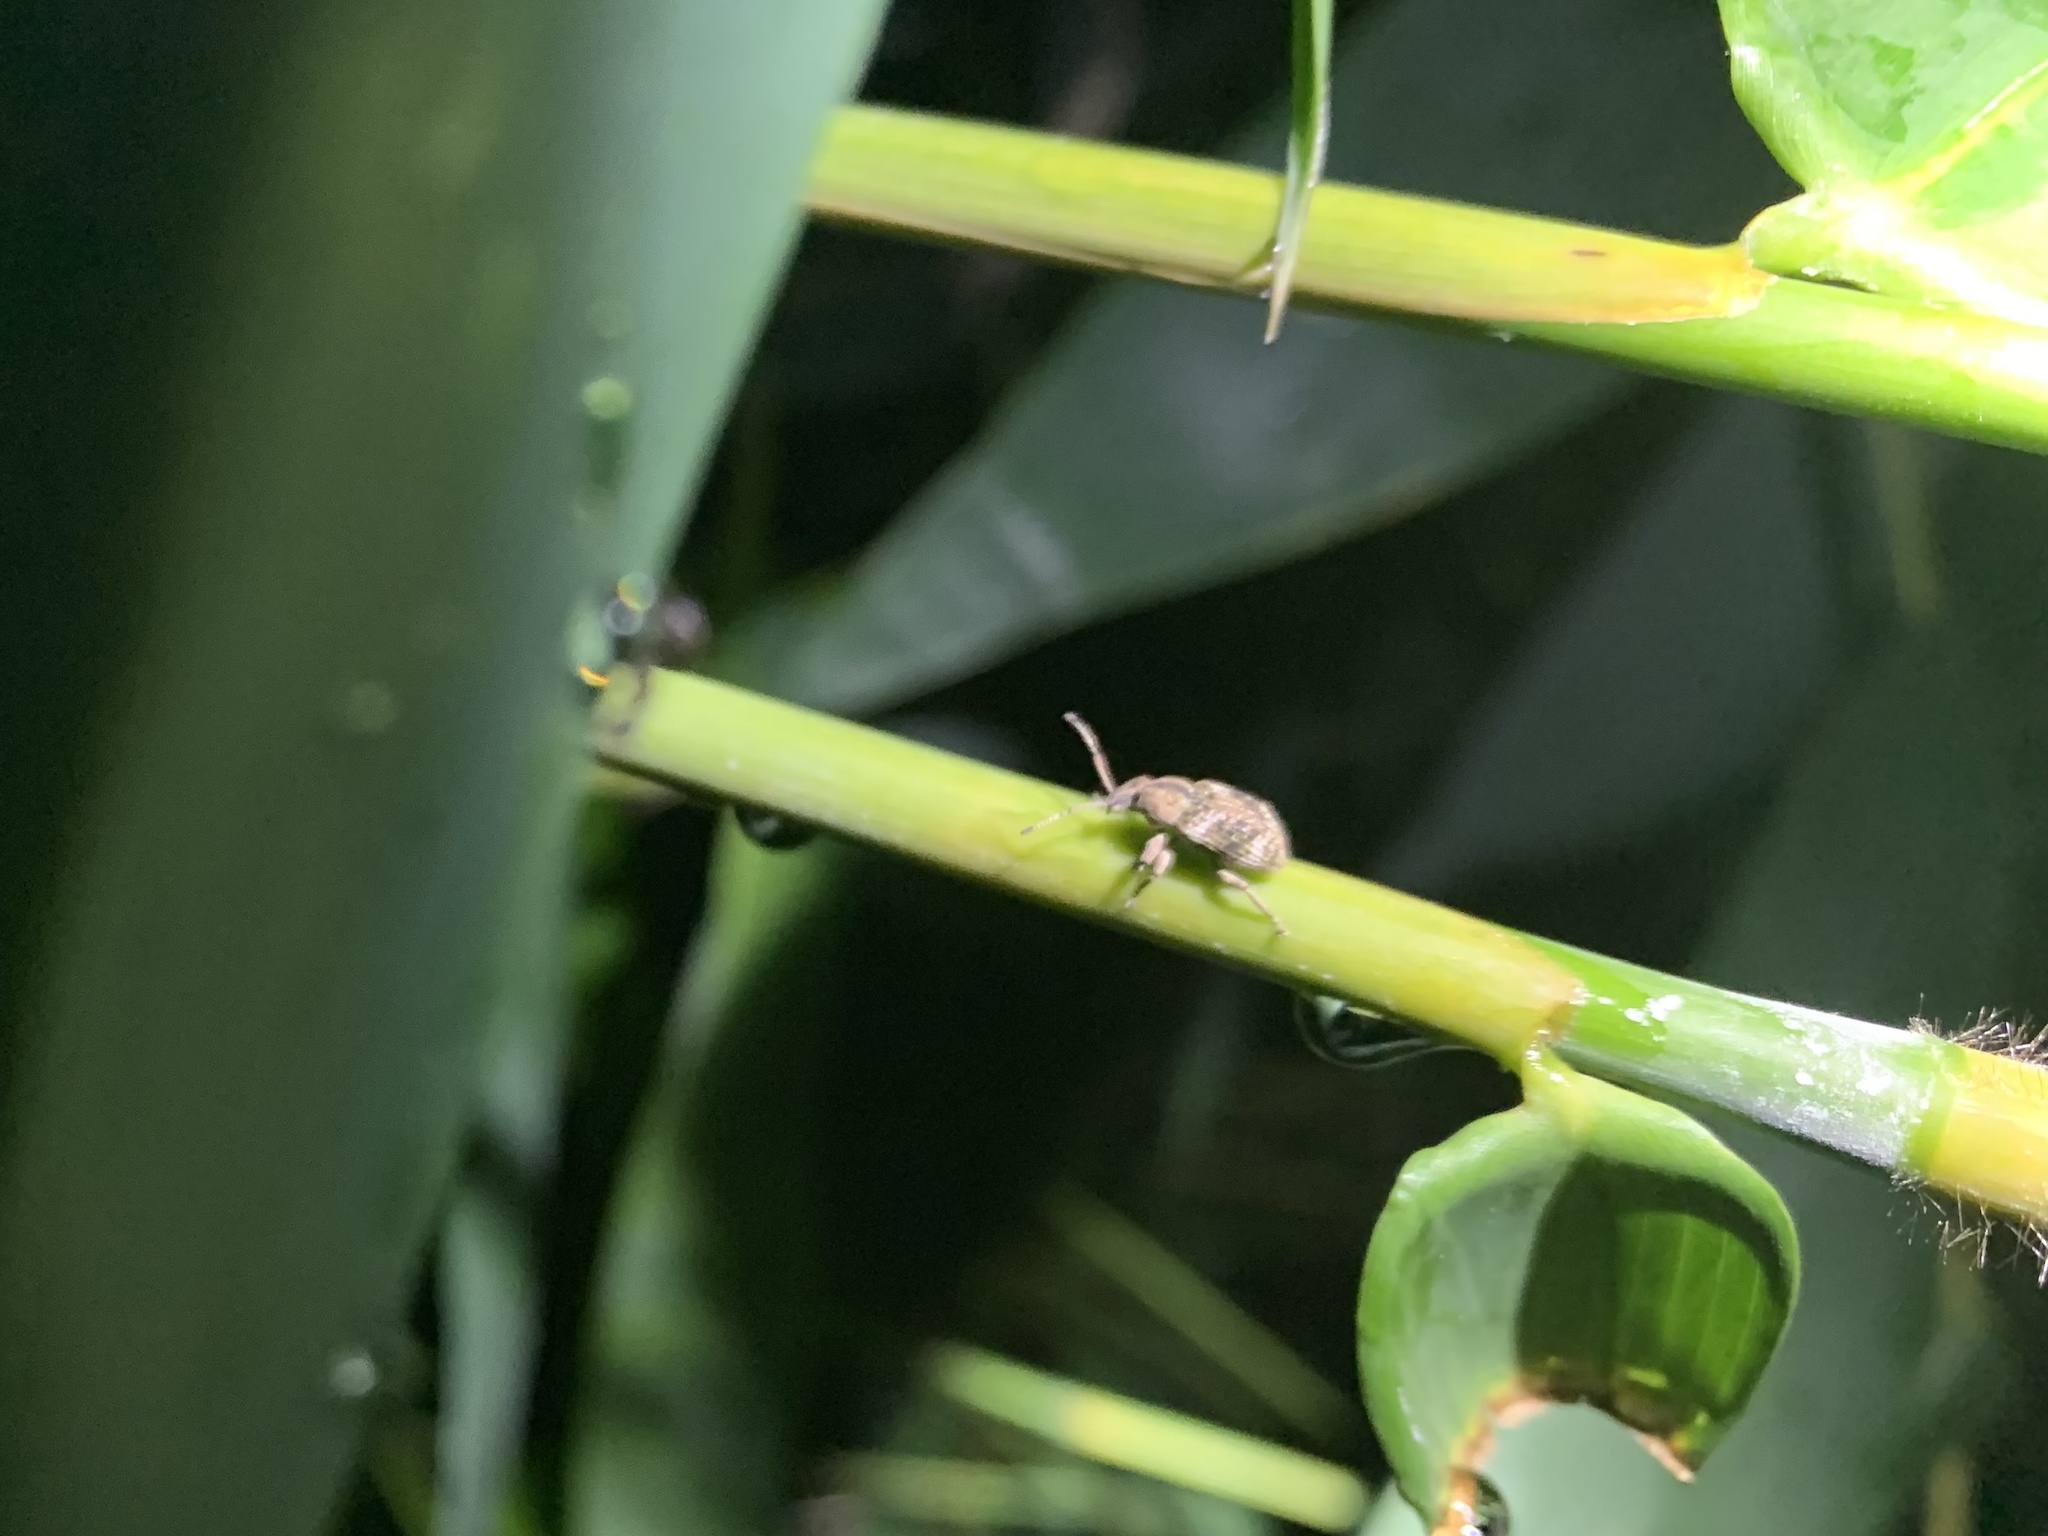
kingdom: Animalia
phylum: Arthropoda
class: Insecta
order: Coleoptera
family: Curculionidae
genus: Phytoscaphus
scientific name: Phytoscaphus triangularis
